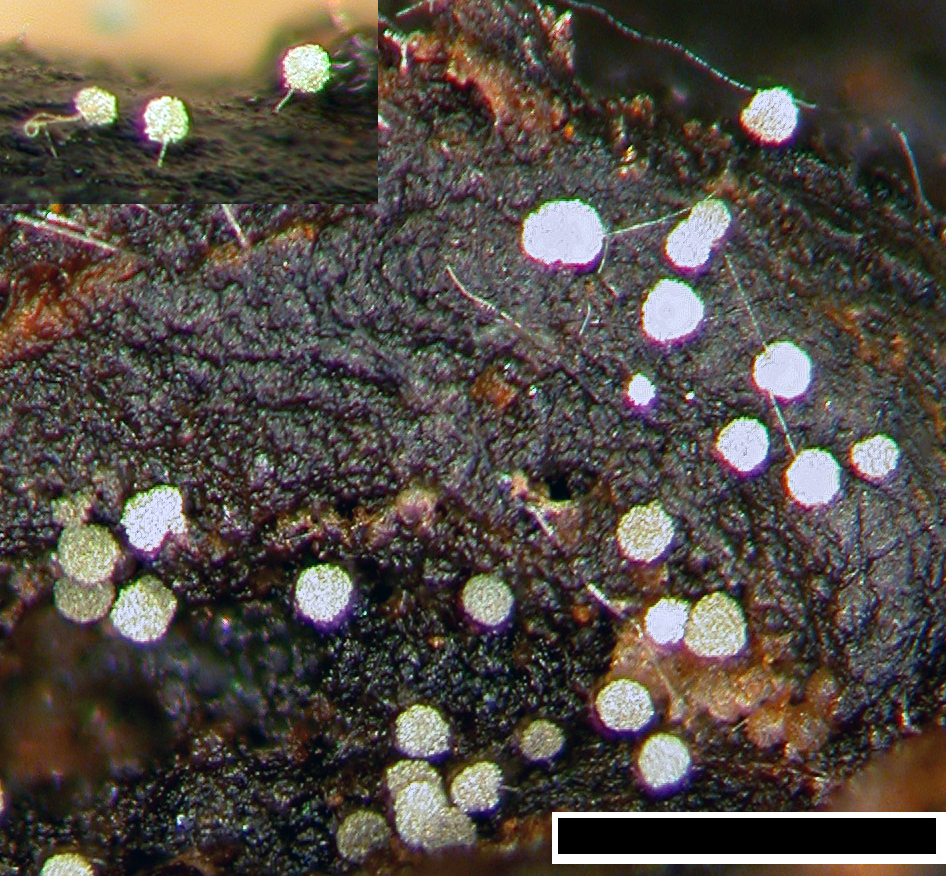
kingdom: Fungi
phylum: Ascomycota
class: Leotiomycetes
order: Helotiales
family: Hyaloscyphaceae
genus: Pseudaegerita
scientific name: Pseudaegerita viridis
